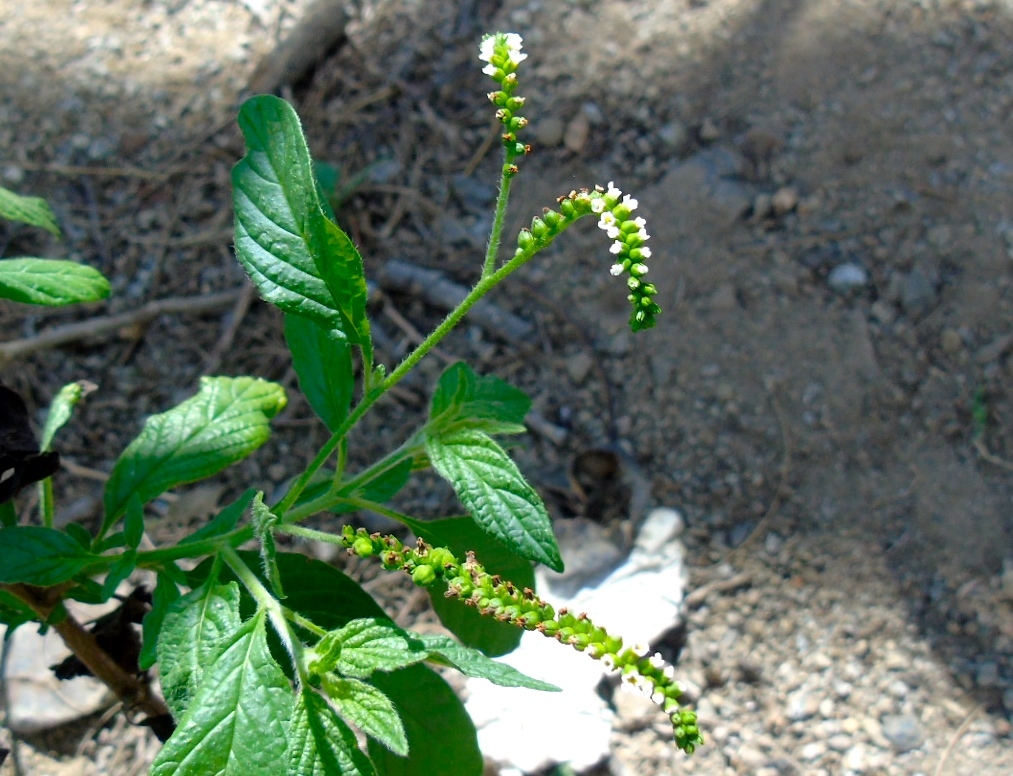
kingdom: Plantae
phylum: Tracheophyta
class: Magnoliopsida
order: Boraginales
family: Heliotropiaceae
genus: Heliotropium
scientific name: Heliotropium angiospermum
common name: Eye bright
